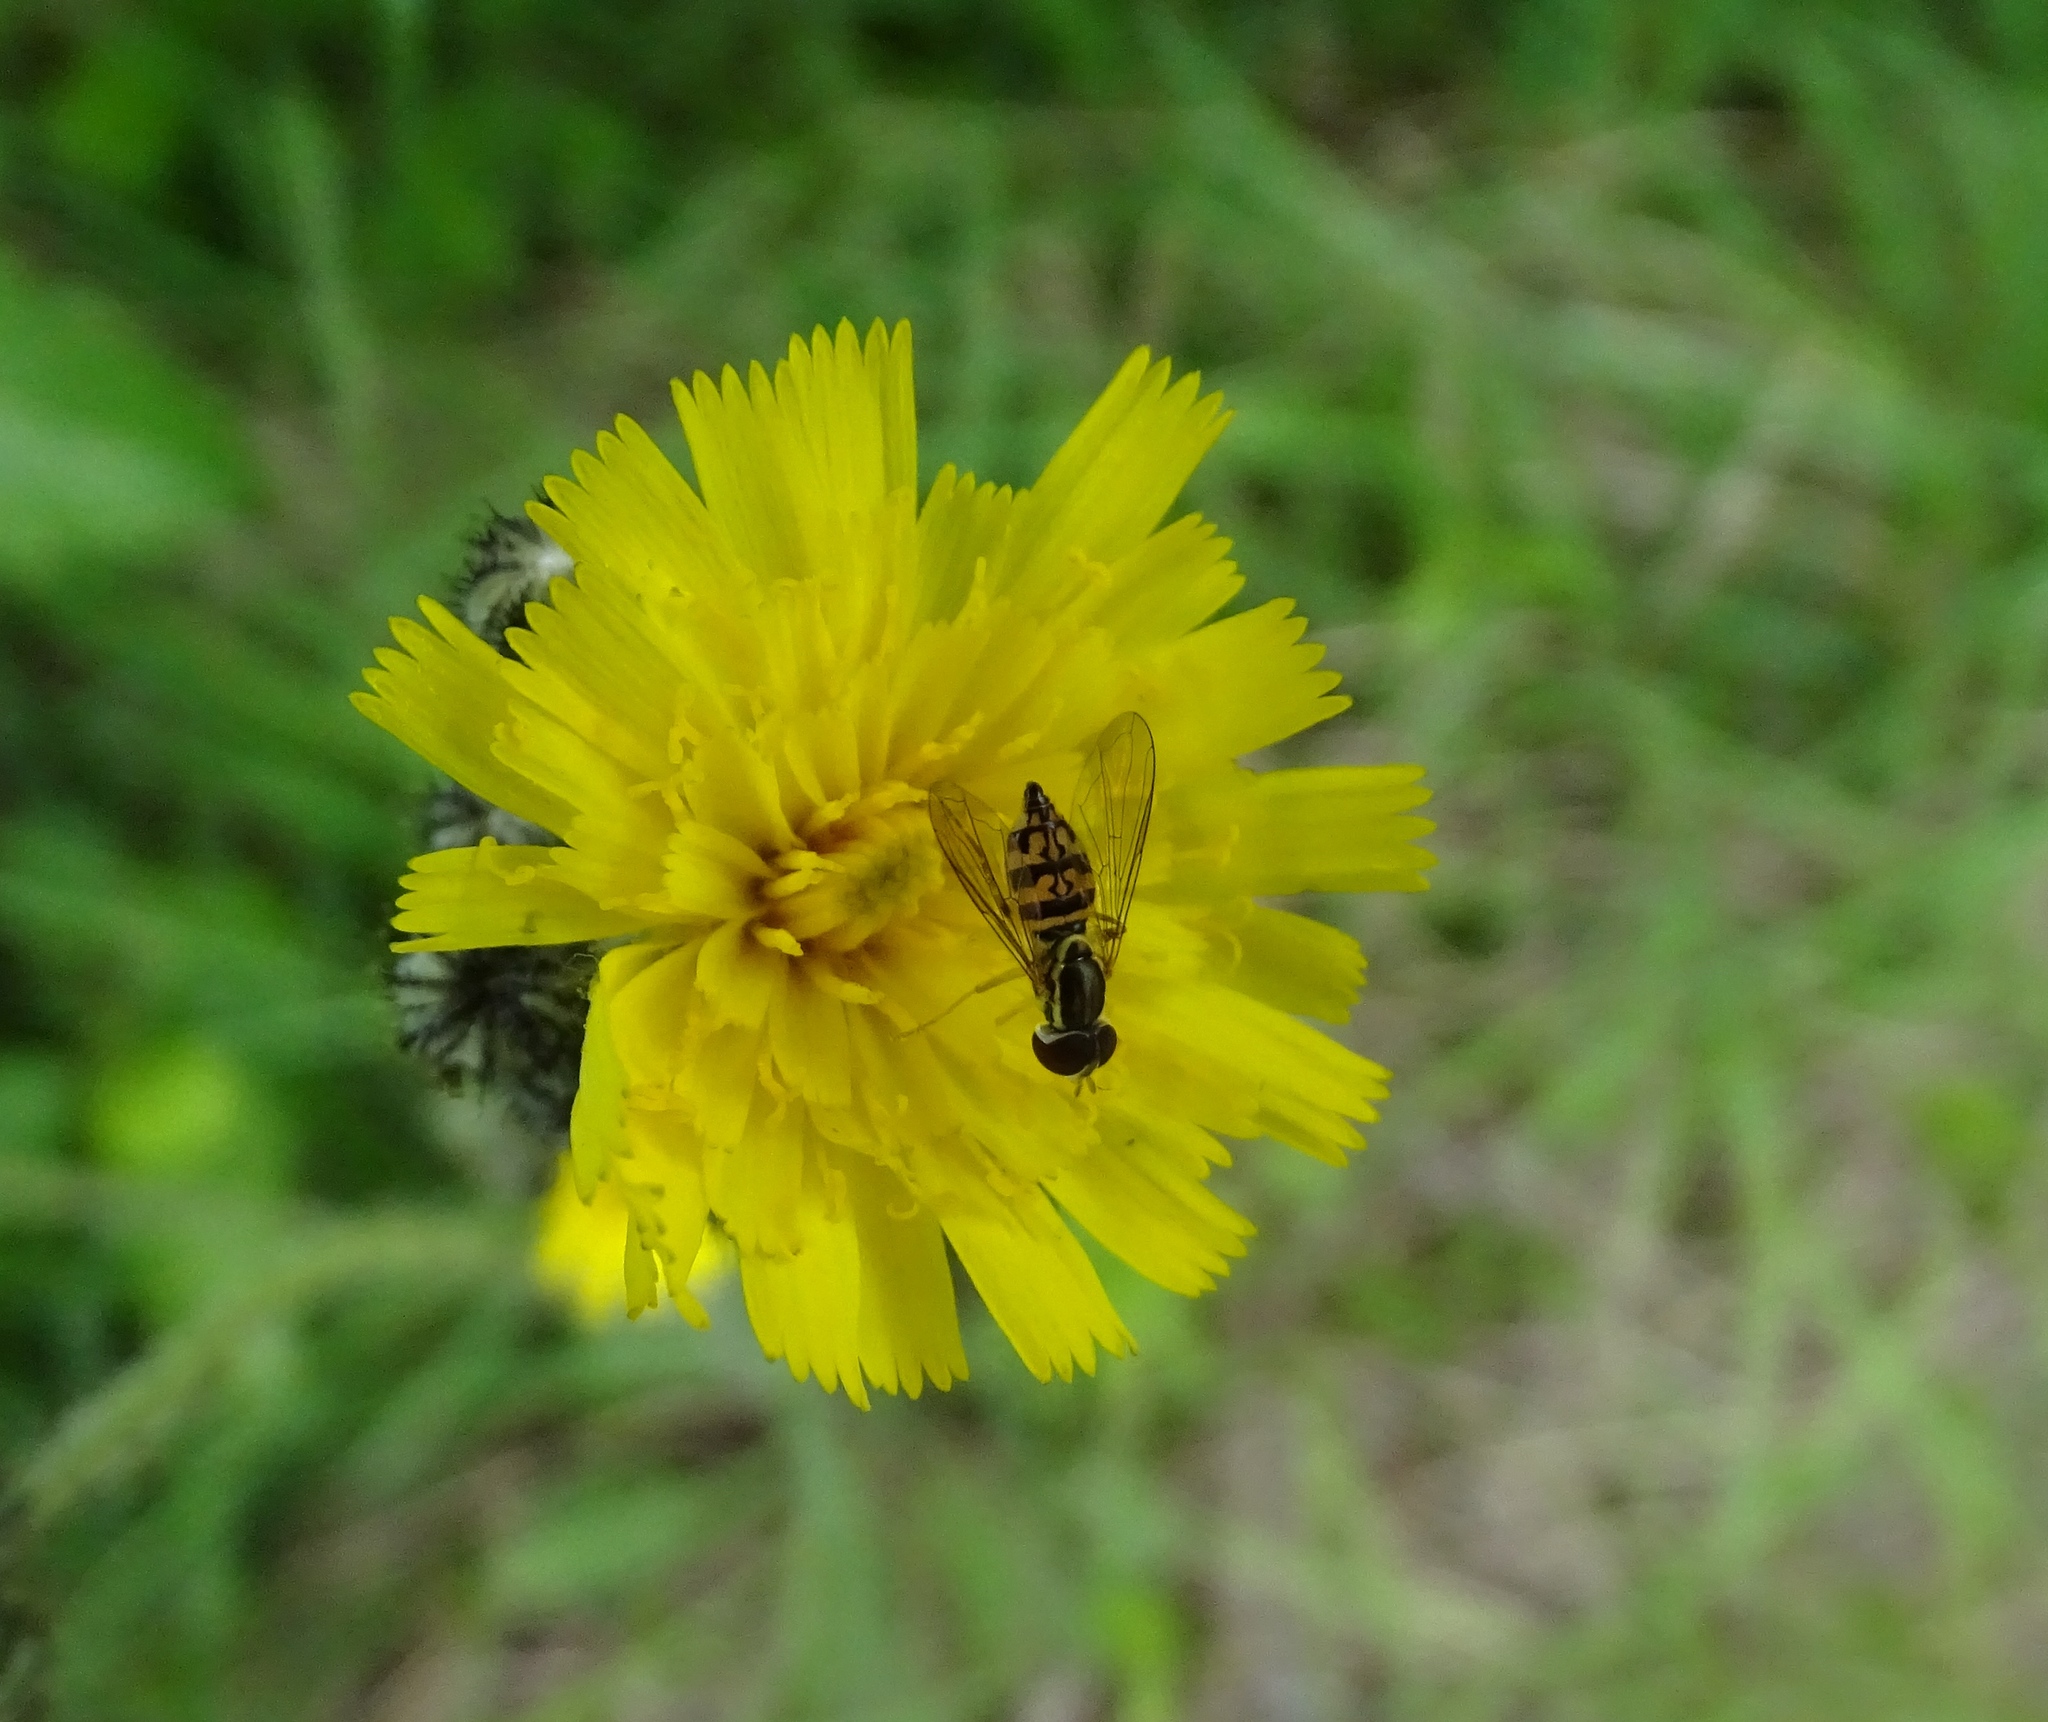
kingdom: Animalia
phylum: Arthropoda
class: Insecta
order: Diptera
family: Syrphidae
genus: Toxomerus
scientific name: Toxomerus geminatus
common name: Eastern calligrapher
